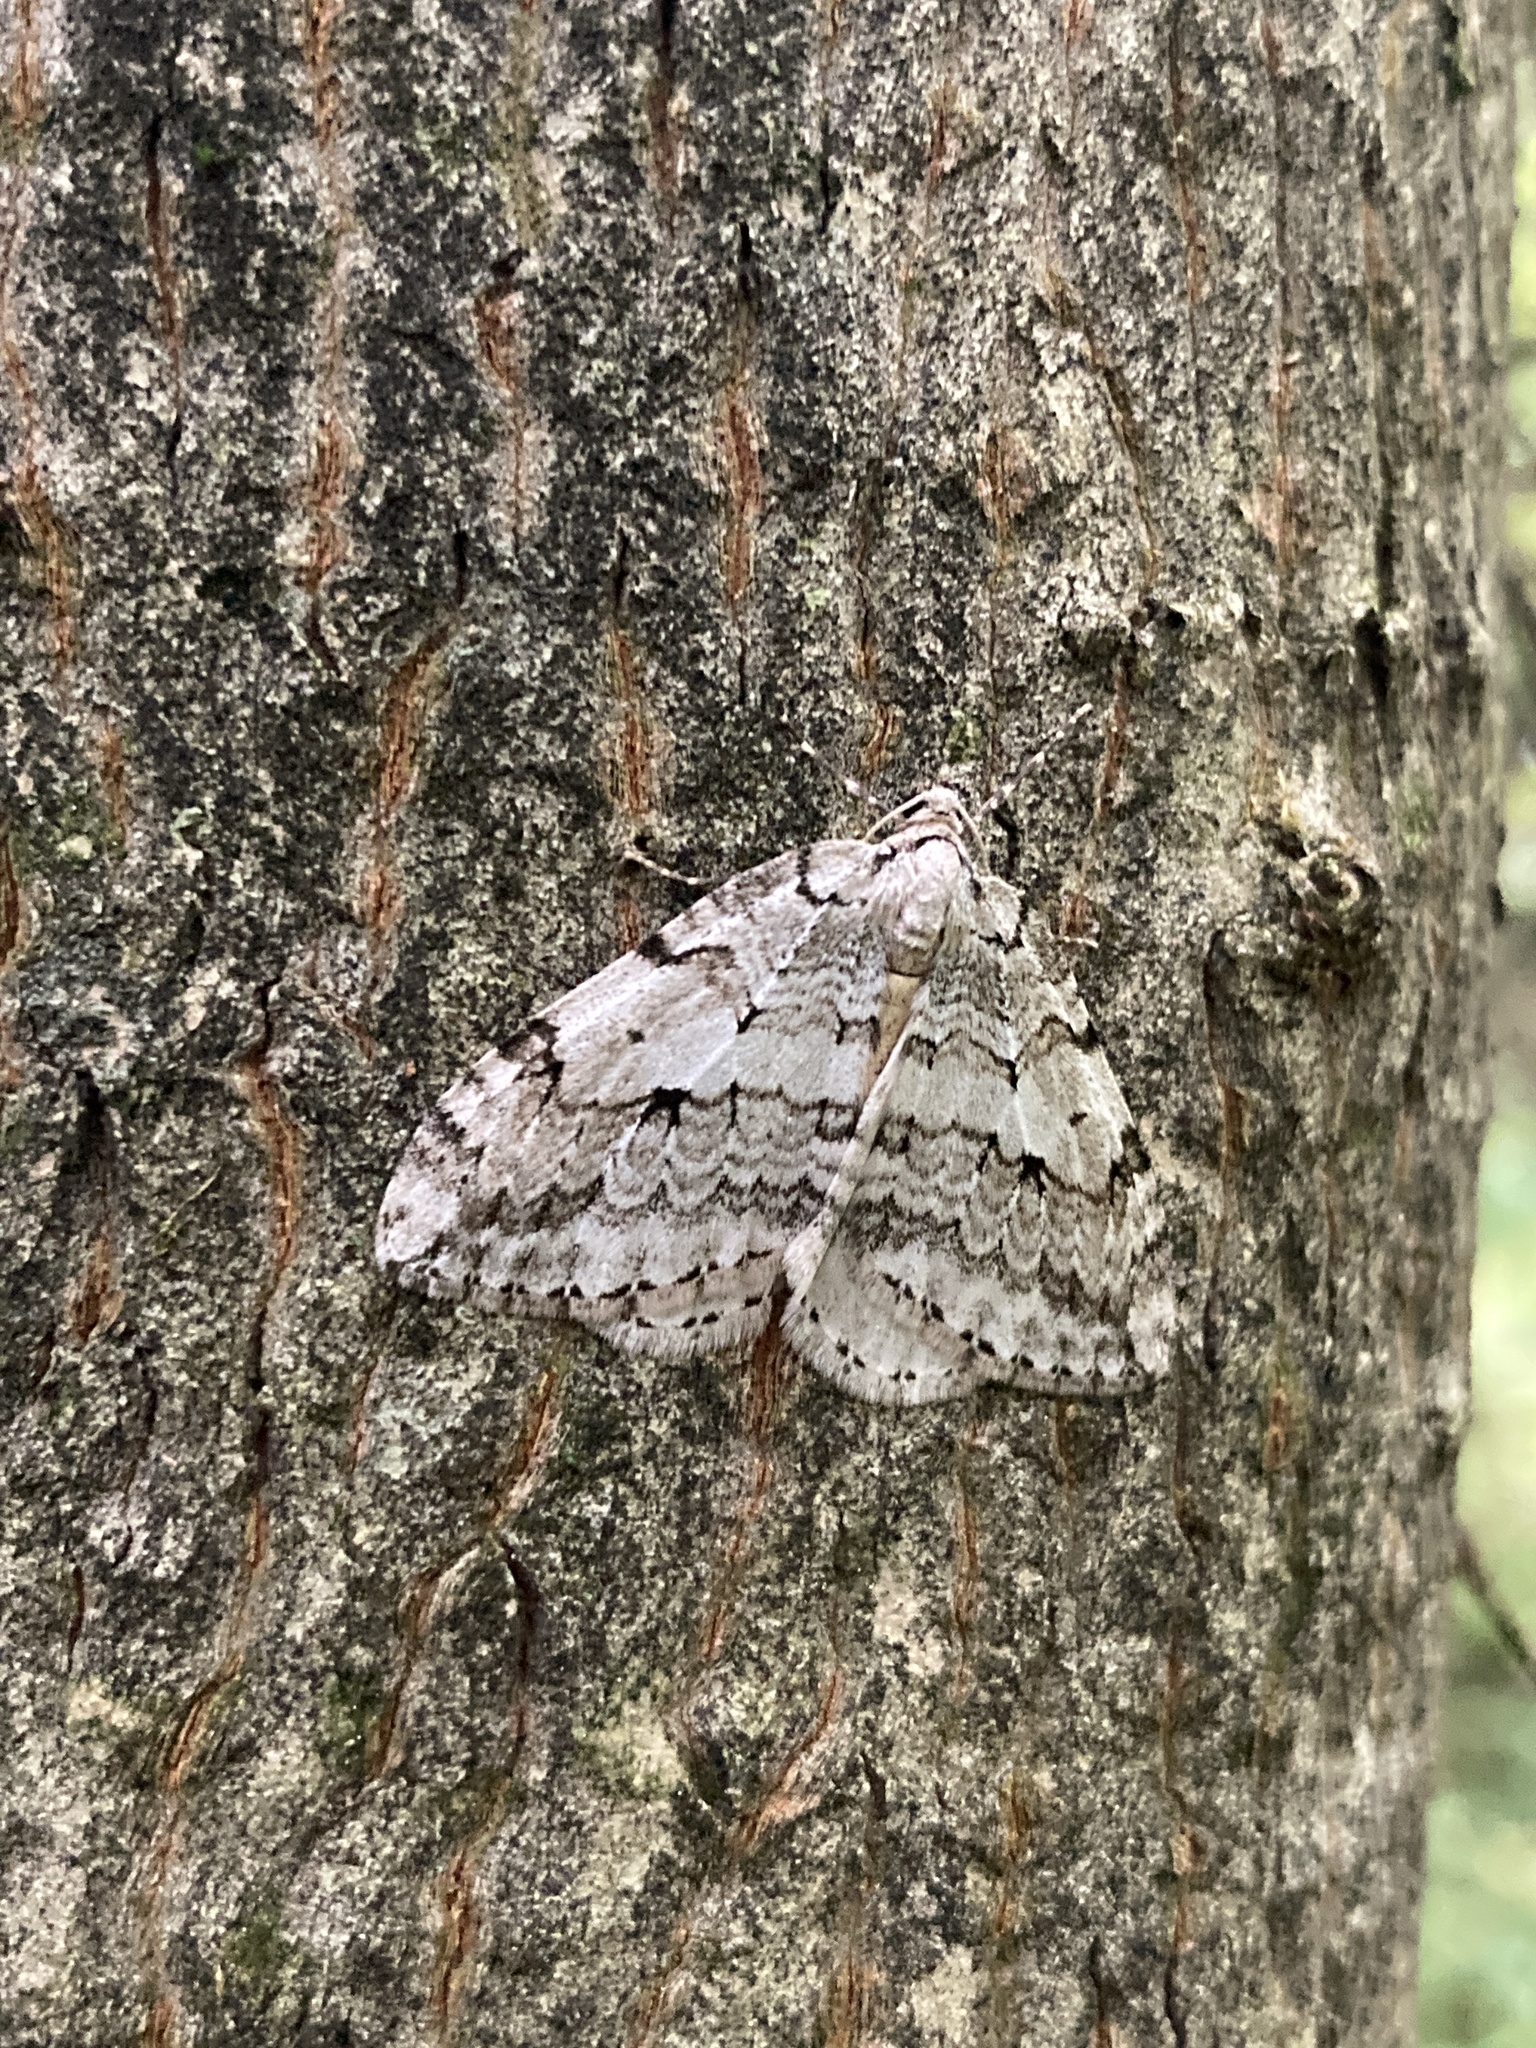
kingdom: Animalia
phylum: Arthropoda
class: Insecta
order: Lepidoptera
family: Geometridae
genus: Epirrita
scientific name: Epirrita autumnata
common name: Autumnal moth
